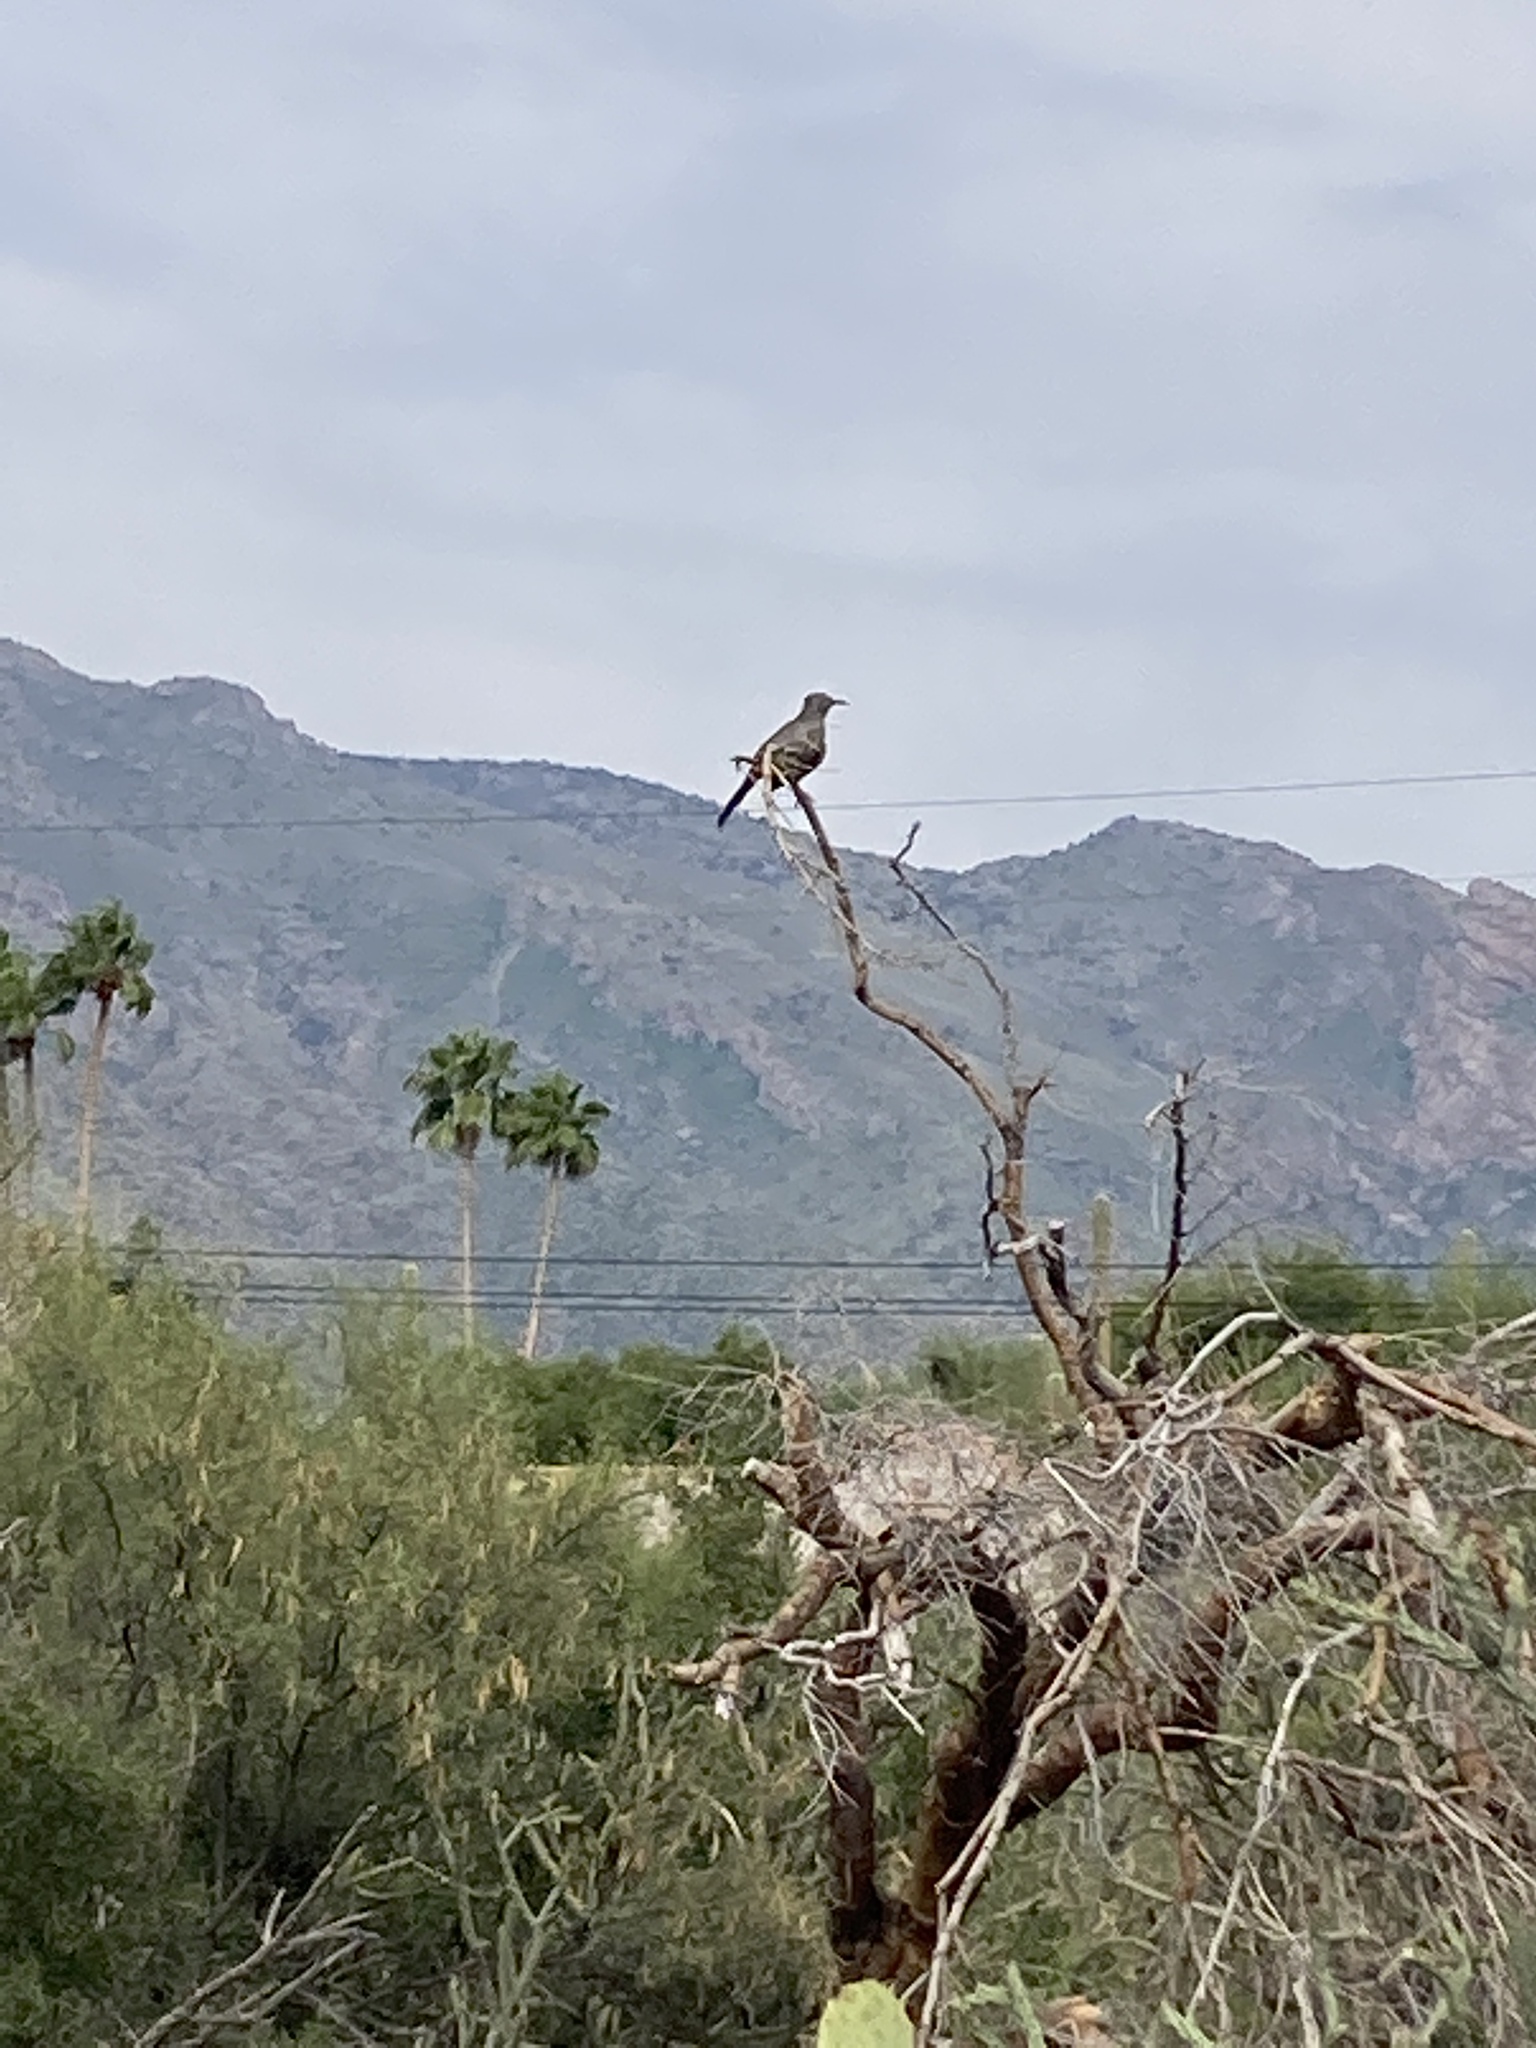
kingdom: Animalia
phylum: Chordata
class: Aves
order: Passeriformes
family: Mimidae
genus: Toxostoma
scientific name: Toxostoma curvirostre
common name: Curve-billed thrasher
